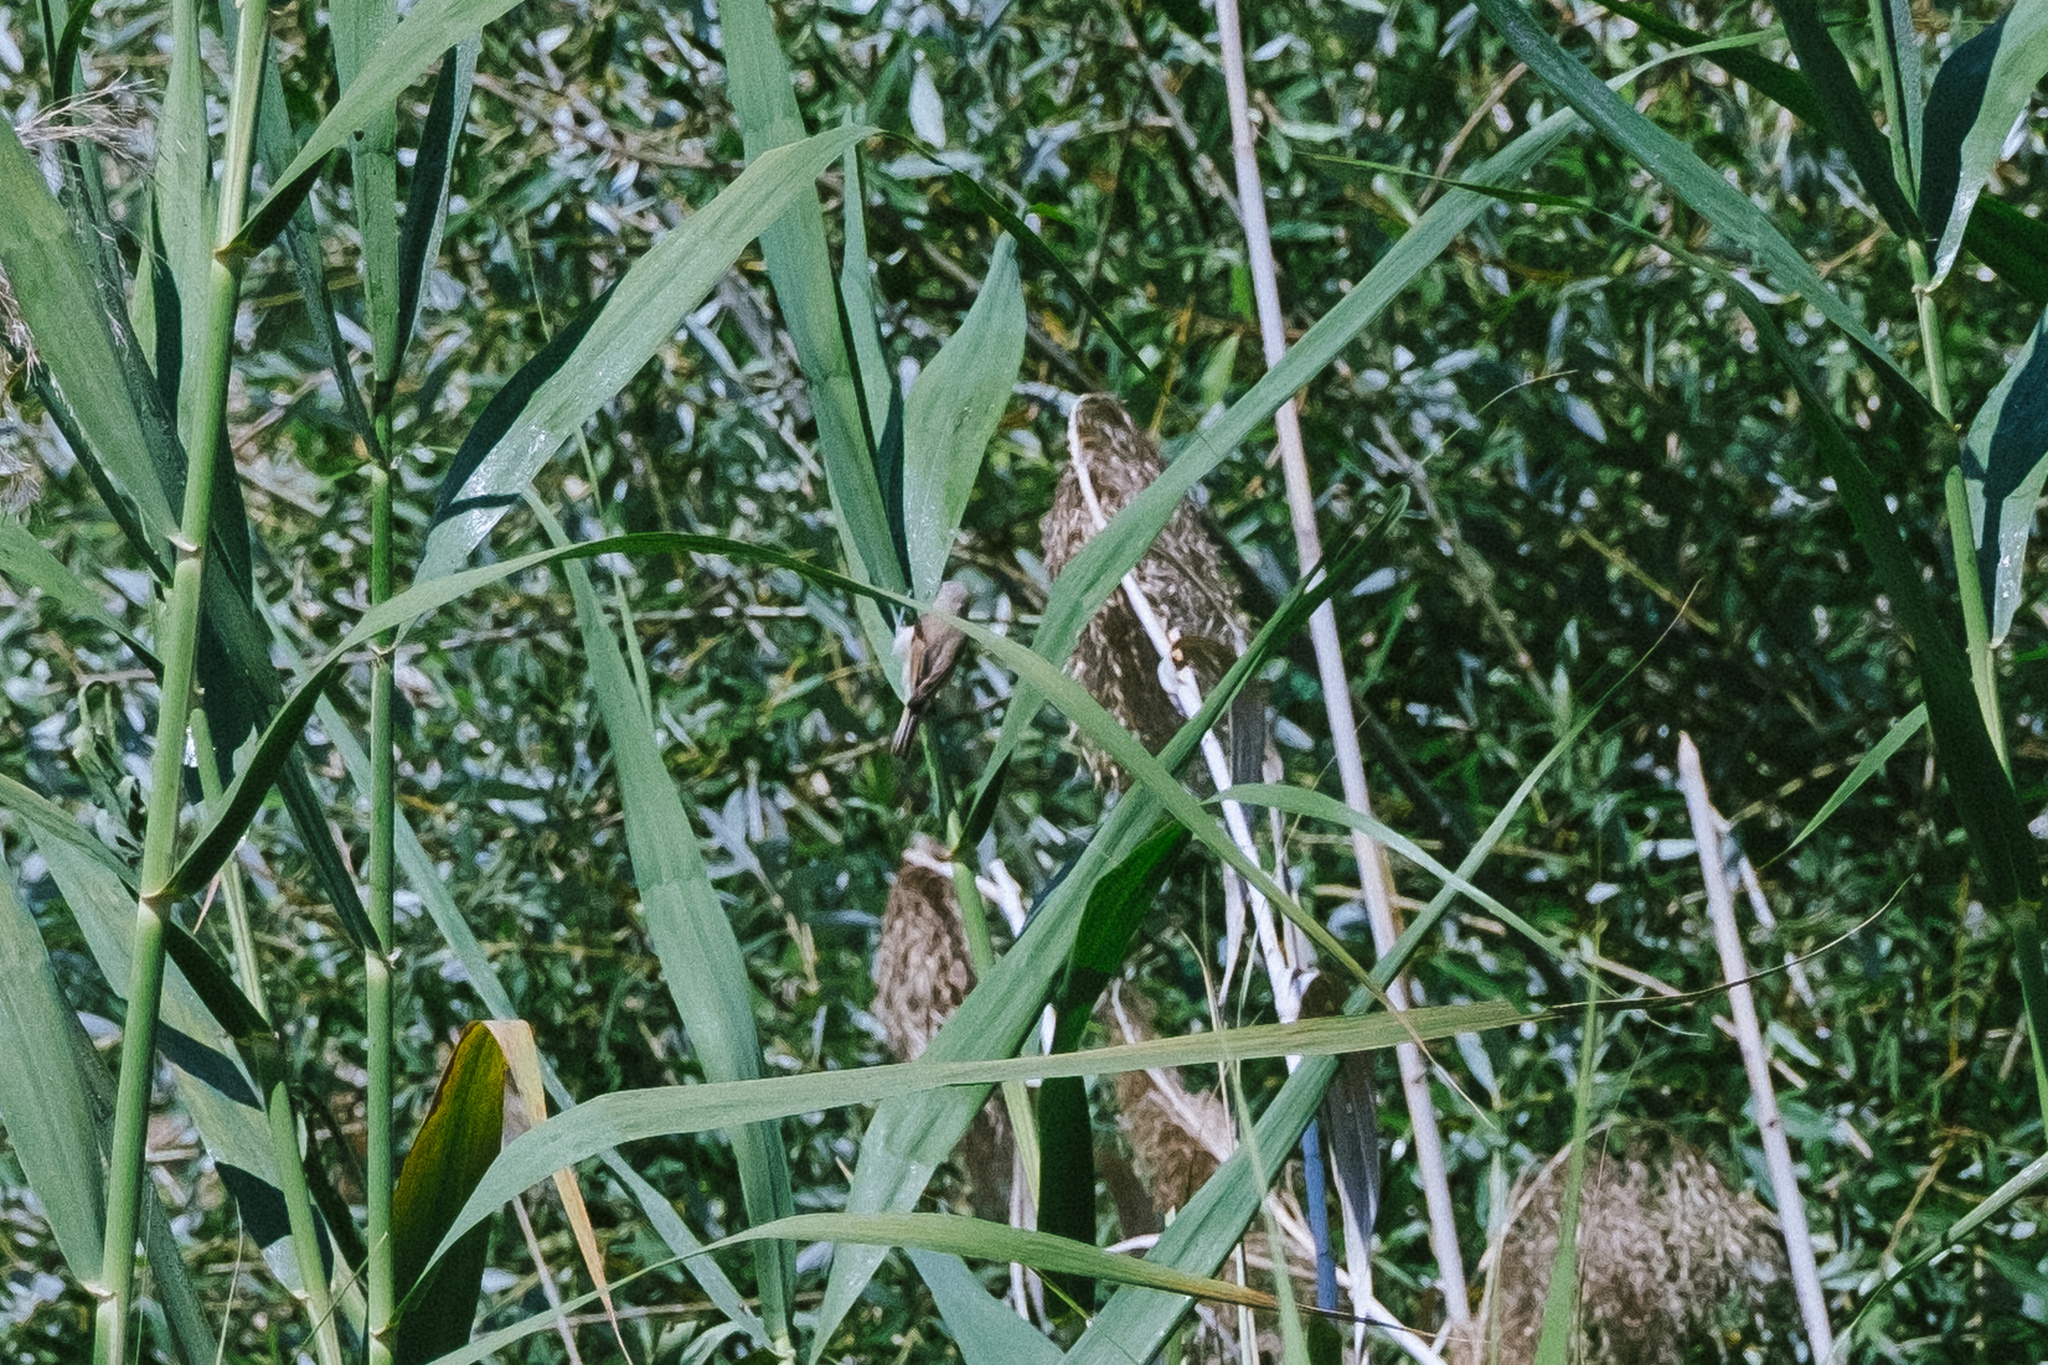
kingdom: Animalia
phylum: Chordata
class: Aves
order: Passeriformes
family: Remizidae
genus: Remiz
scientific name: Remiz pendulinus
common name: Eurasian penduline tit
